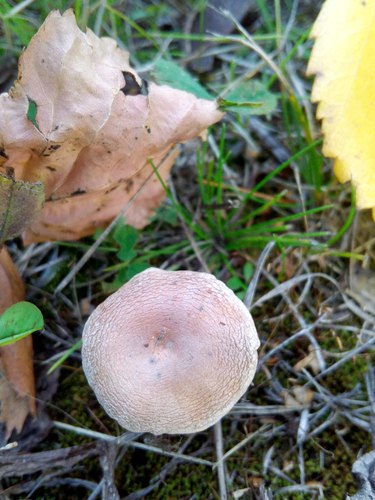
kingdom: Fungi
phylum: Basidiomycota
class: Agaricomycetes
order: Agaricales
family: Cortinariaceae
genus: Cortinarius
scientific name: Cortinarius
